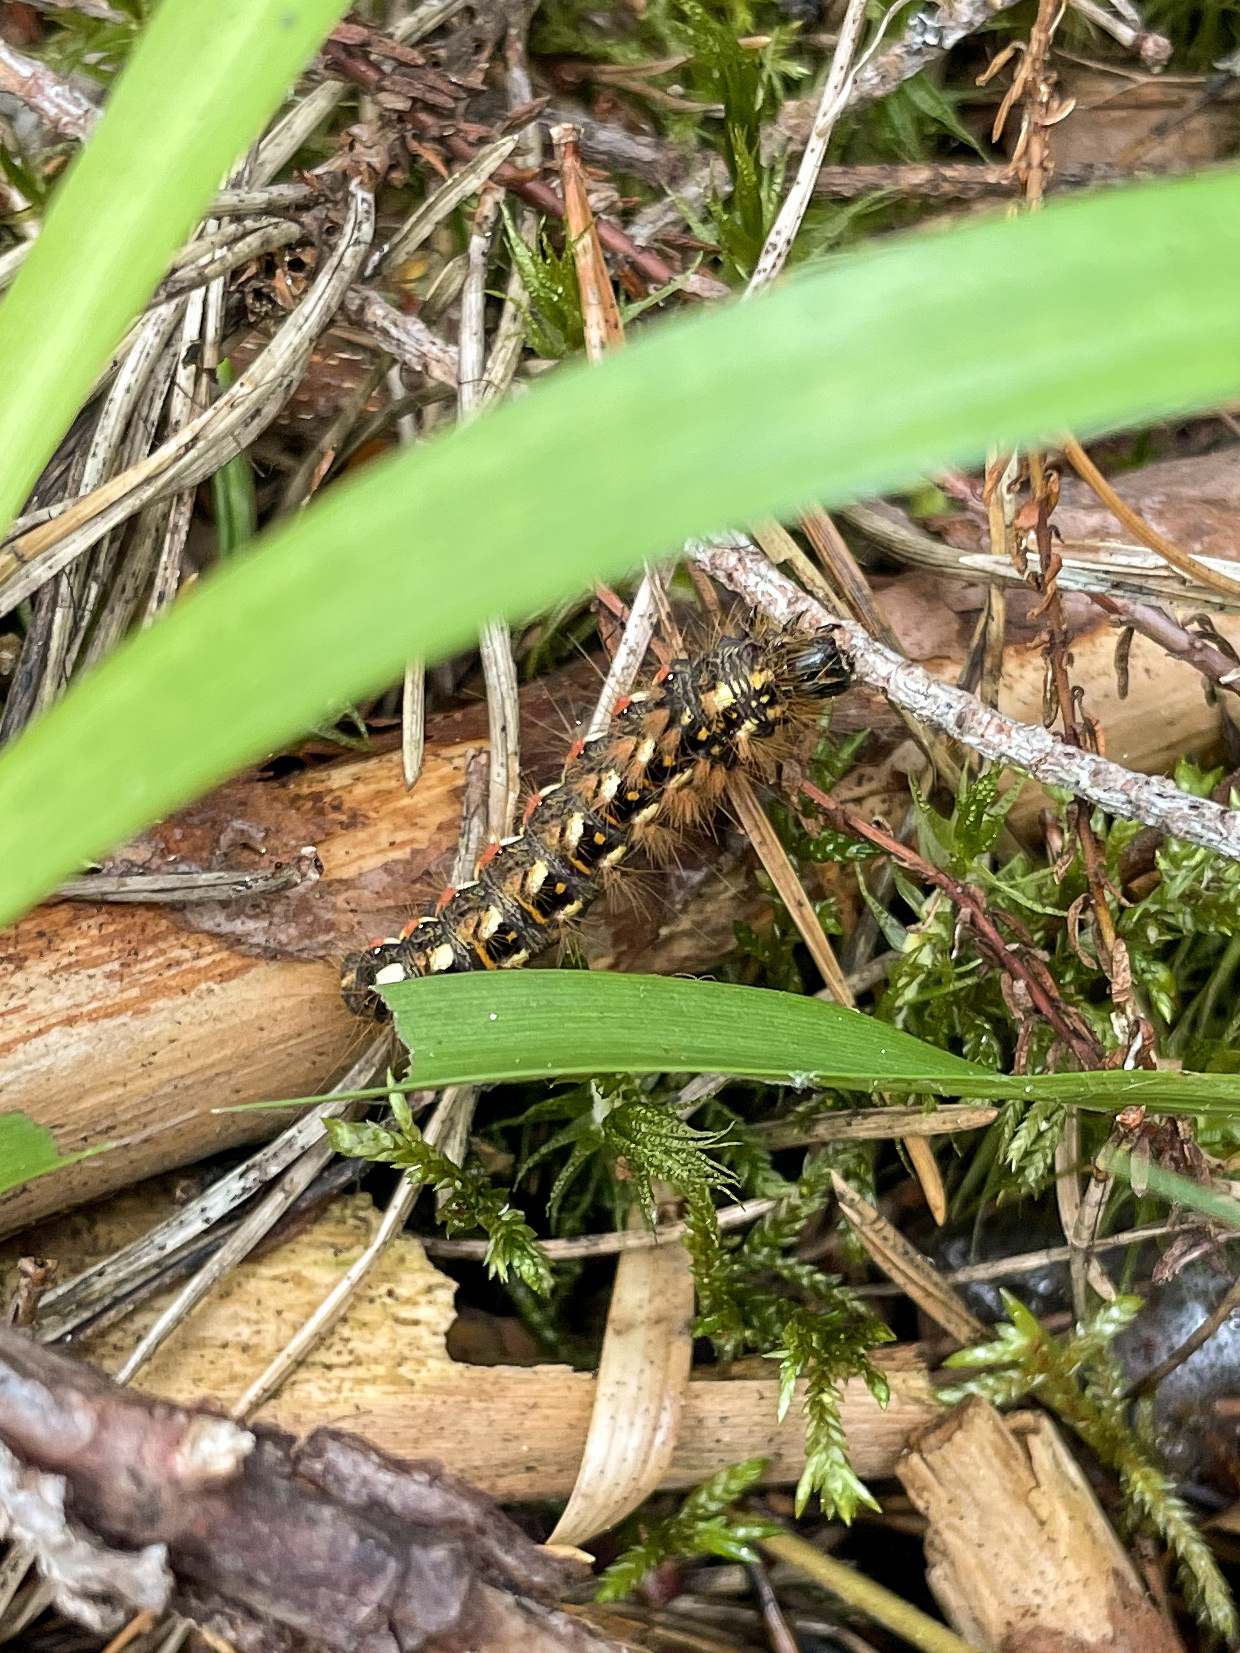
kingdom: Animalia
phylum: Arthropoda
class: Insecta
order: Lepidoptera
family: Noctuidae
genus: Acronicta
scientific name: Acronicta rumicis
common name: Knot grass
